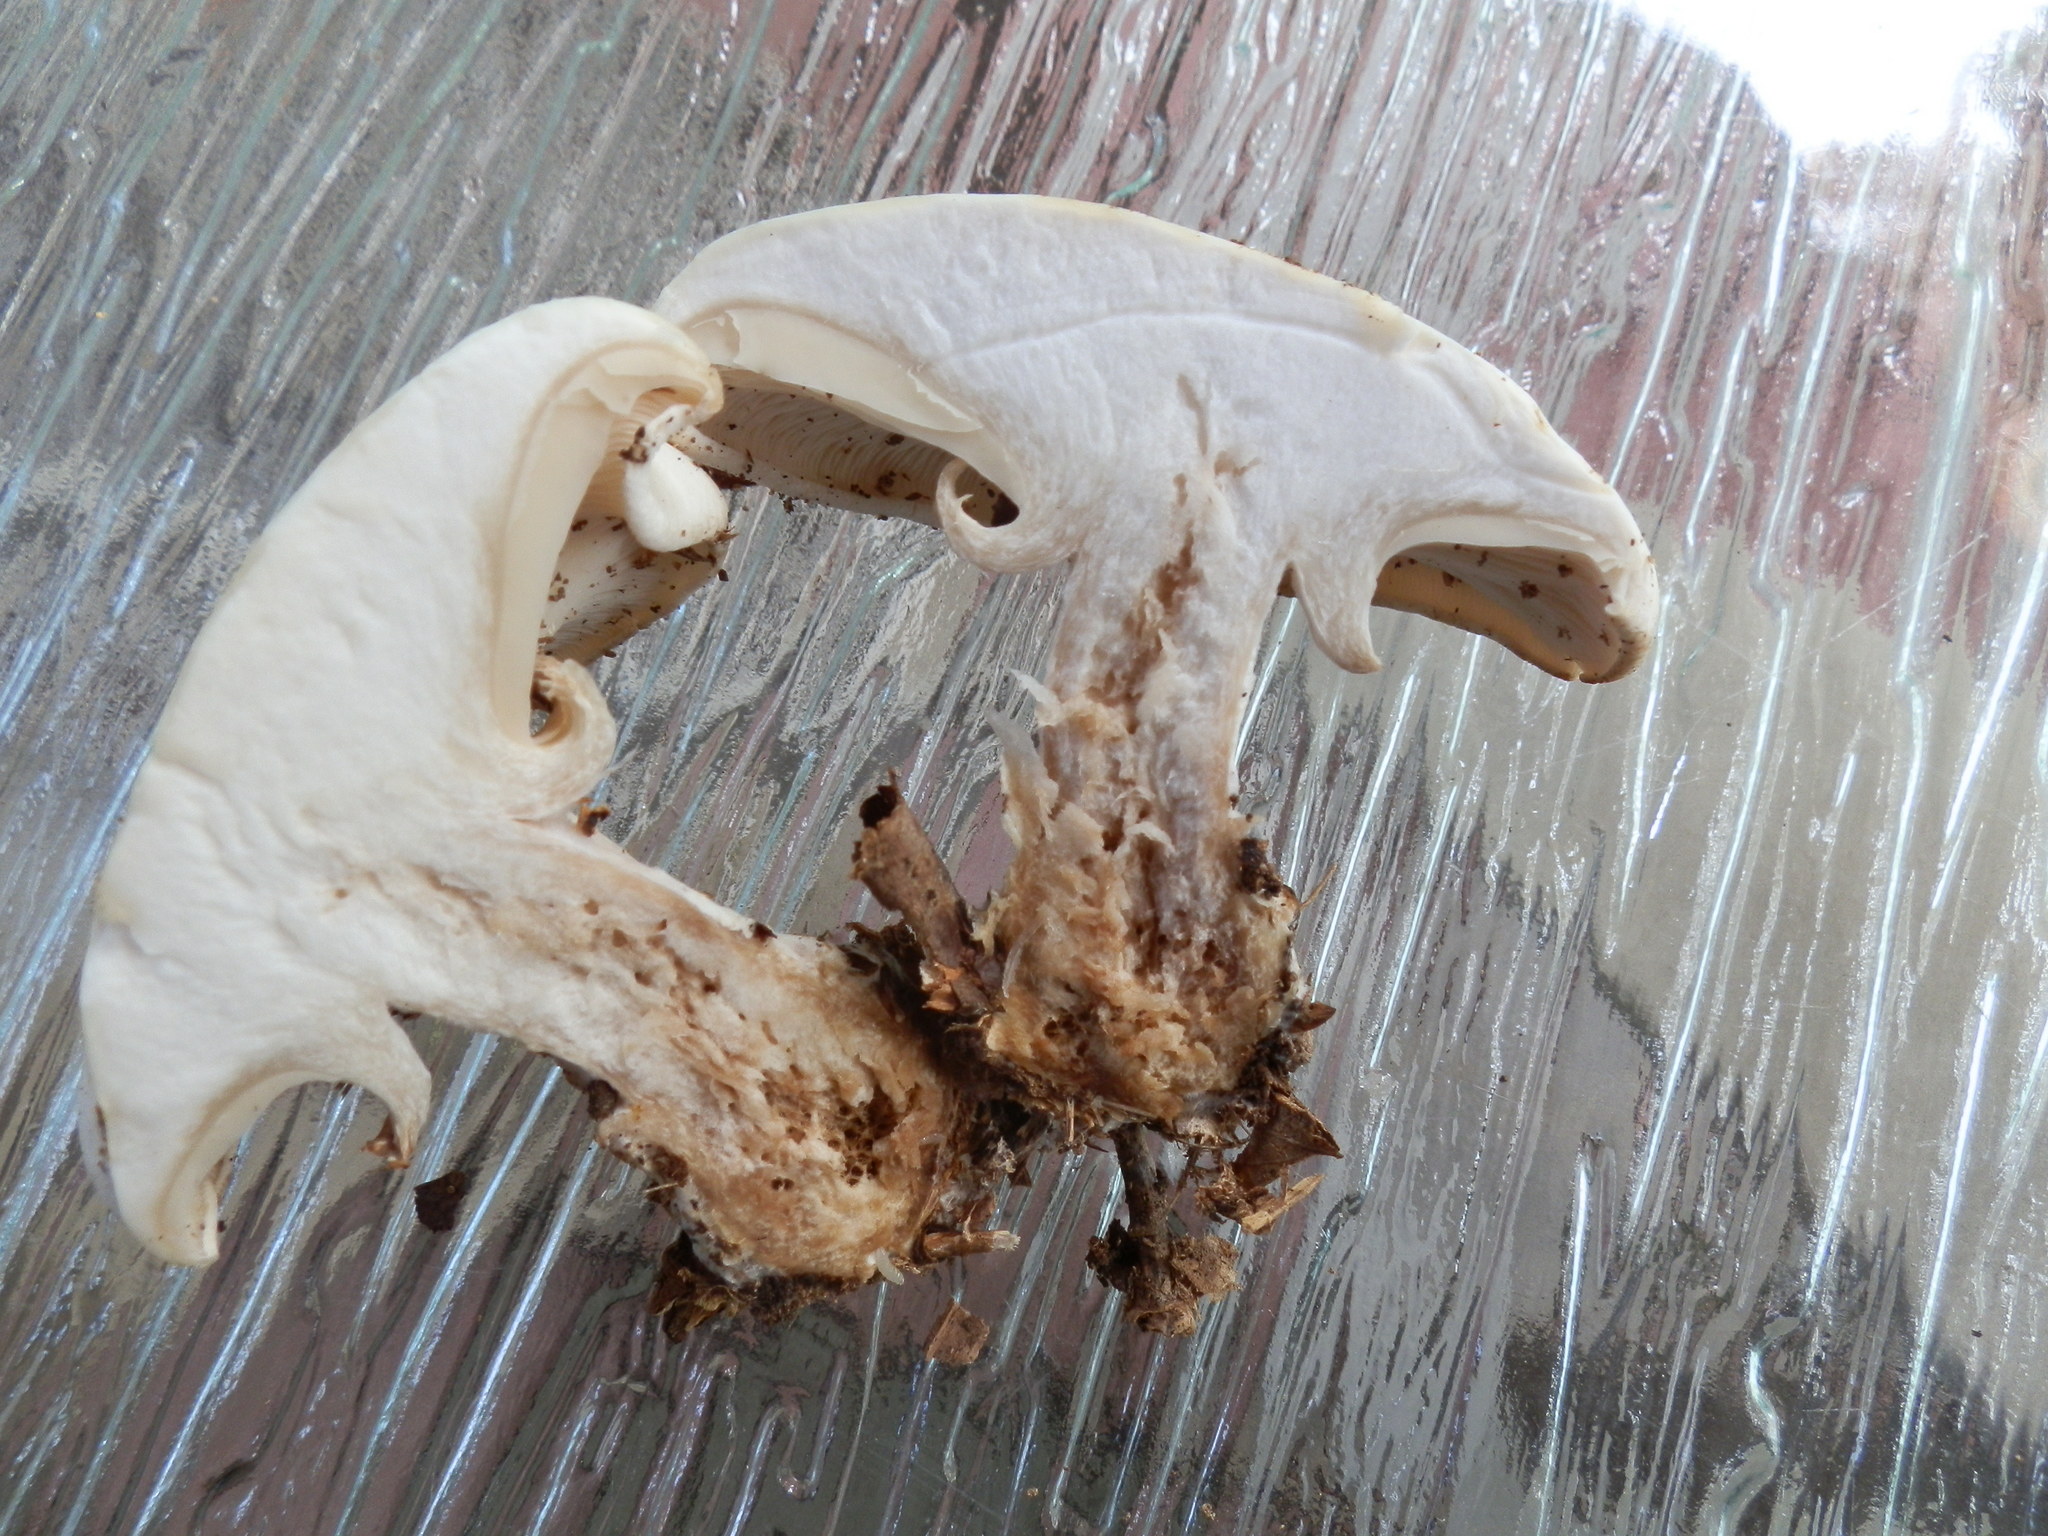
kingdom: Fungi
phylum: Basidiomycota
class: Agaricomycetes
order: Agaricales
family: Tricholomataceae
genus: Clitocybe
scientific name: Clitocybe robusta
